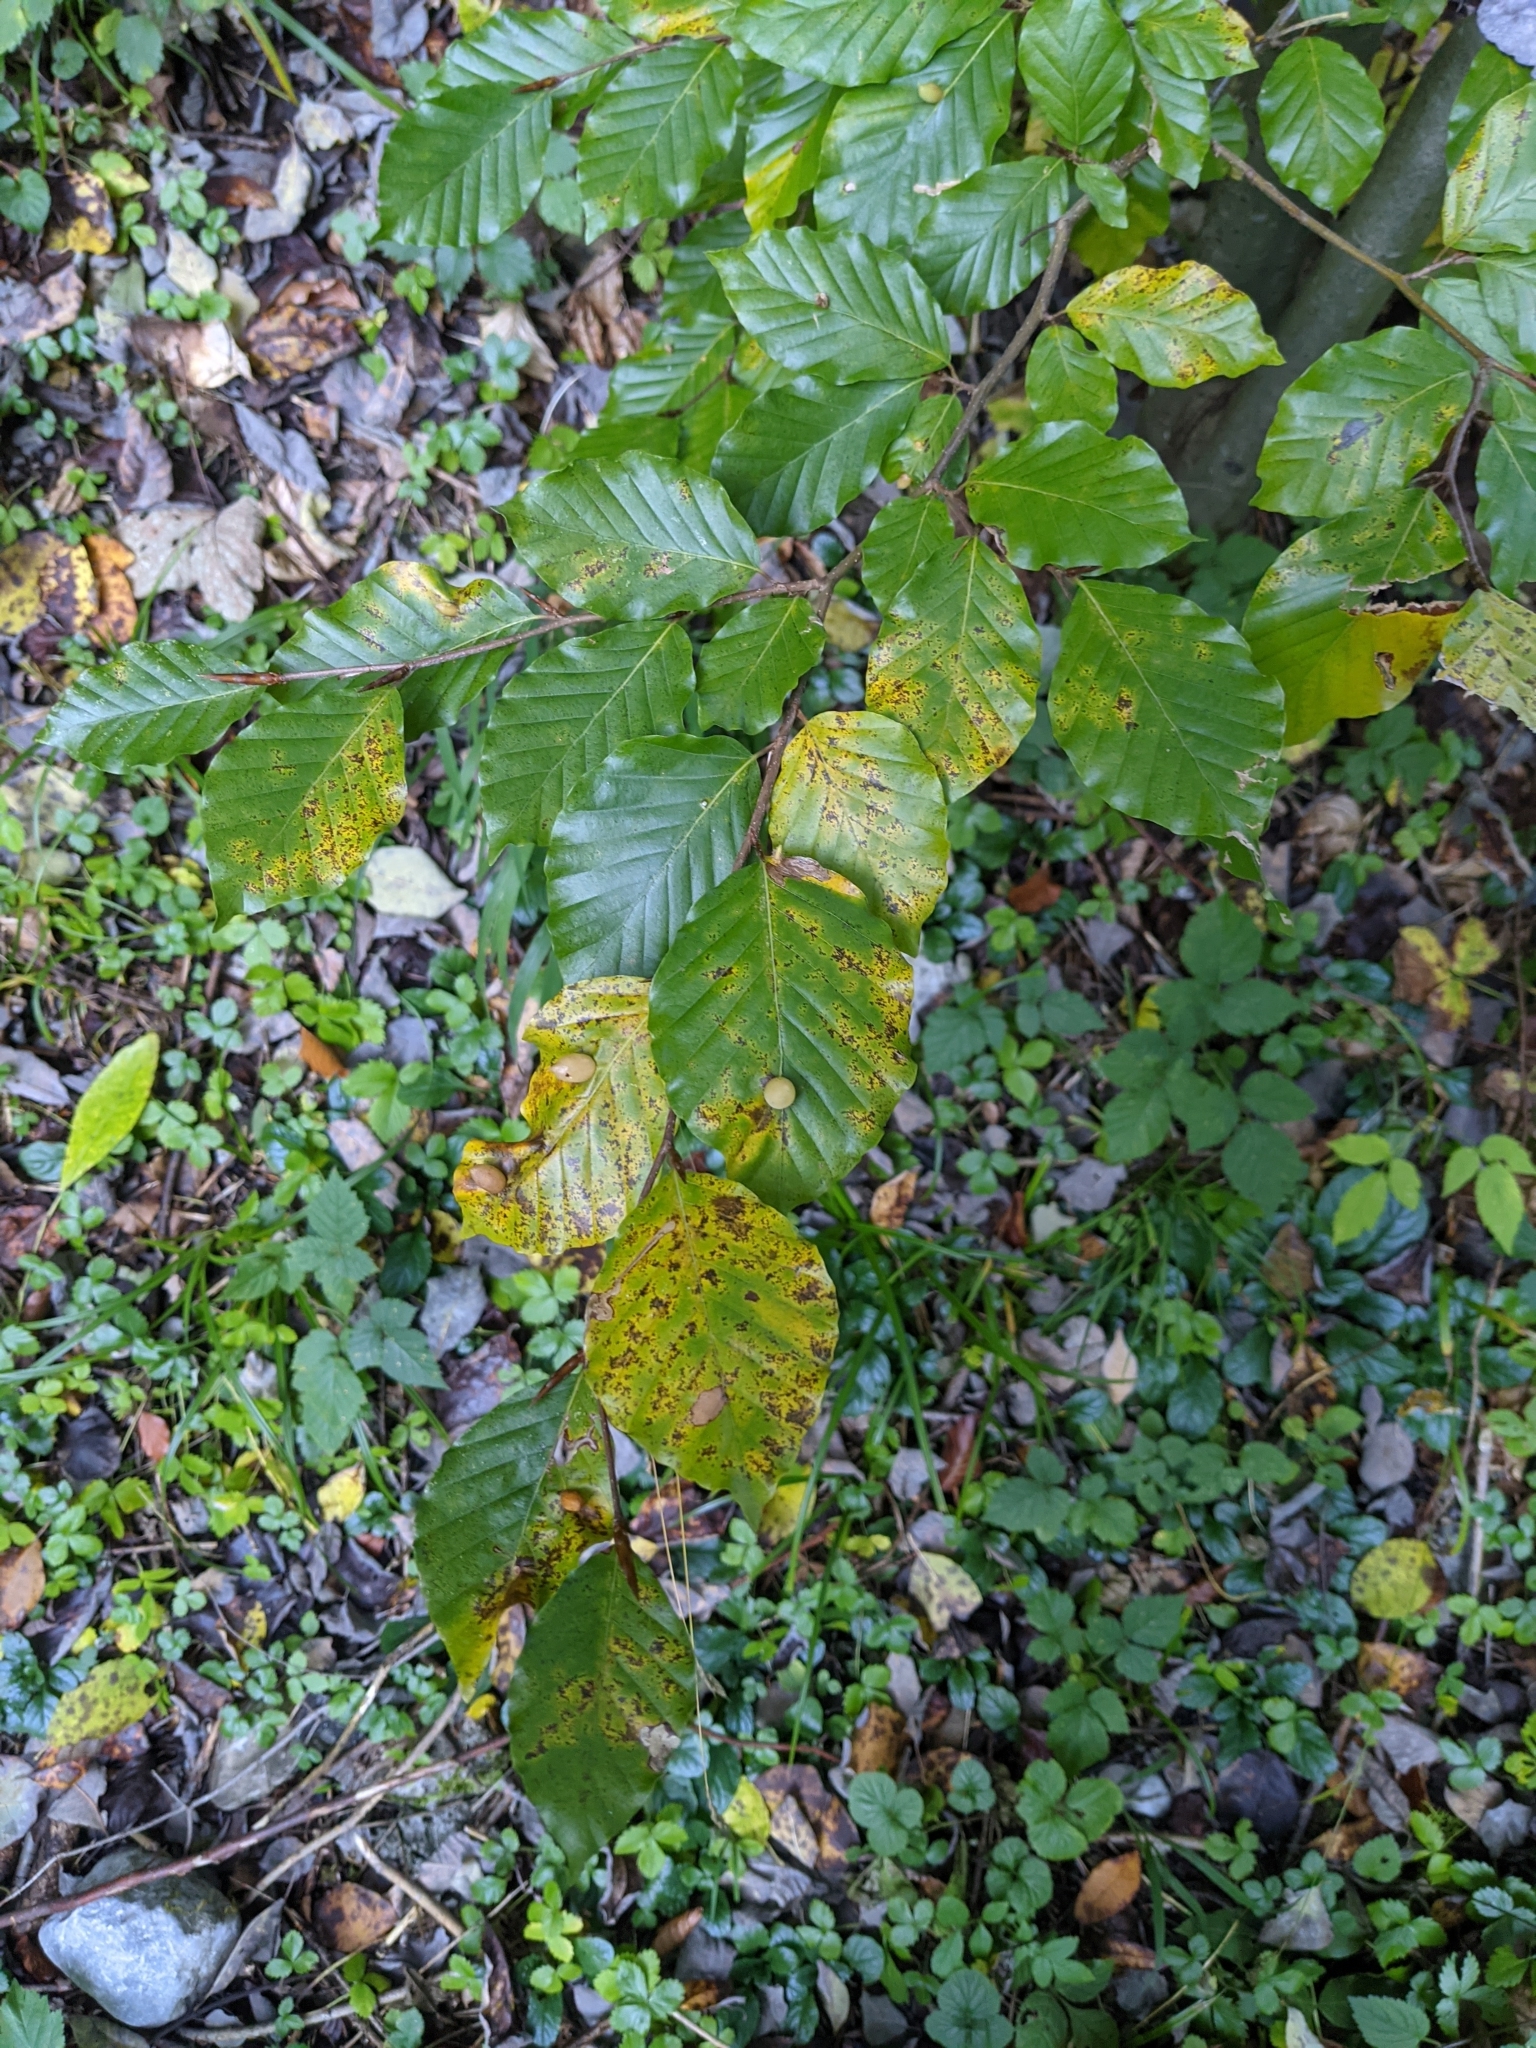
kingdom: Plantae
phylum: Tracheophyta
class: Magnoliopsida
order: Fagales
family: Fagaceae
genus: Fagus
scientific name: Fagus sylvatica
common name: Beech
